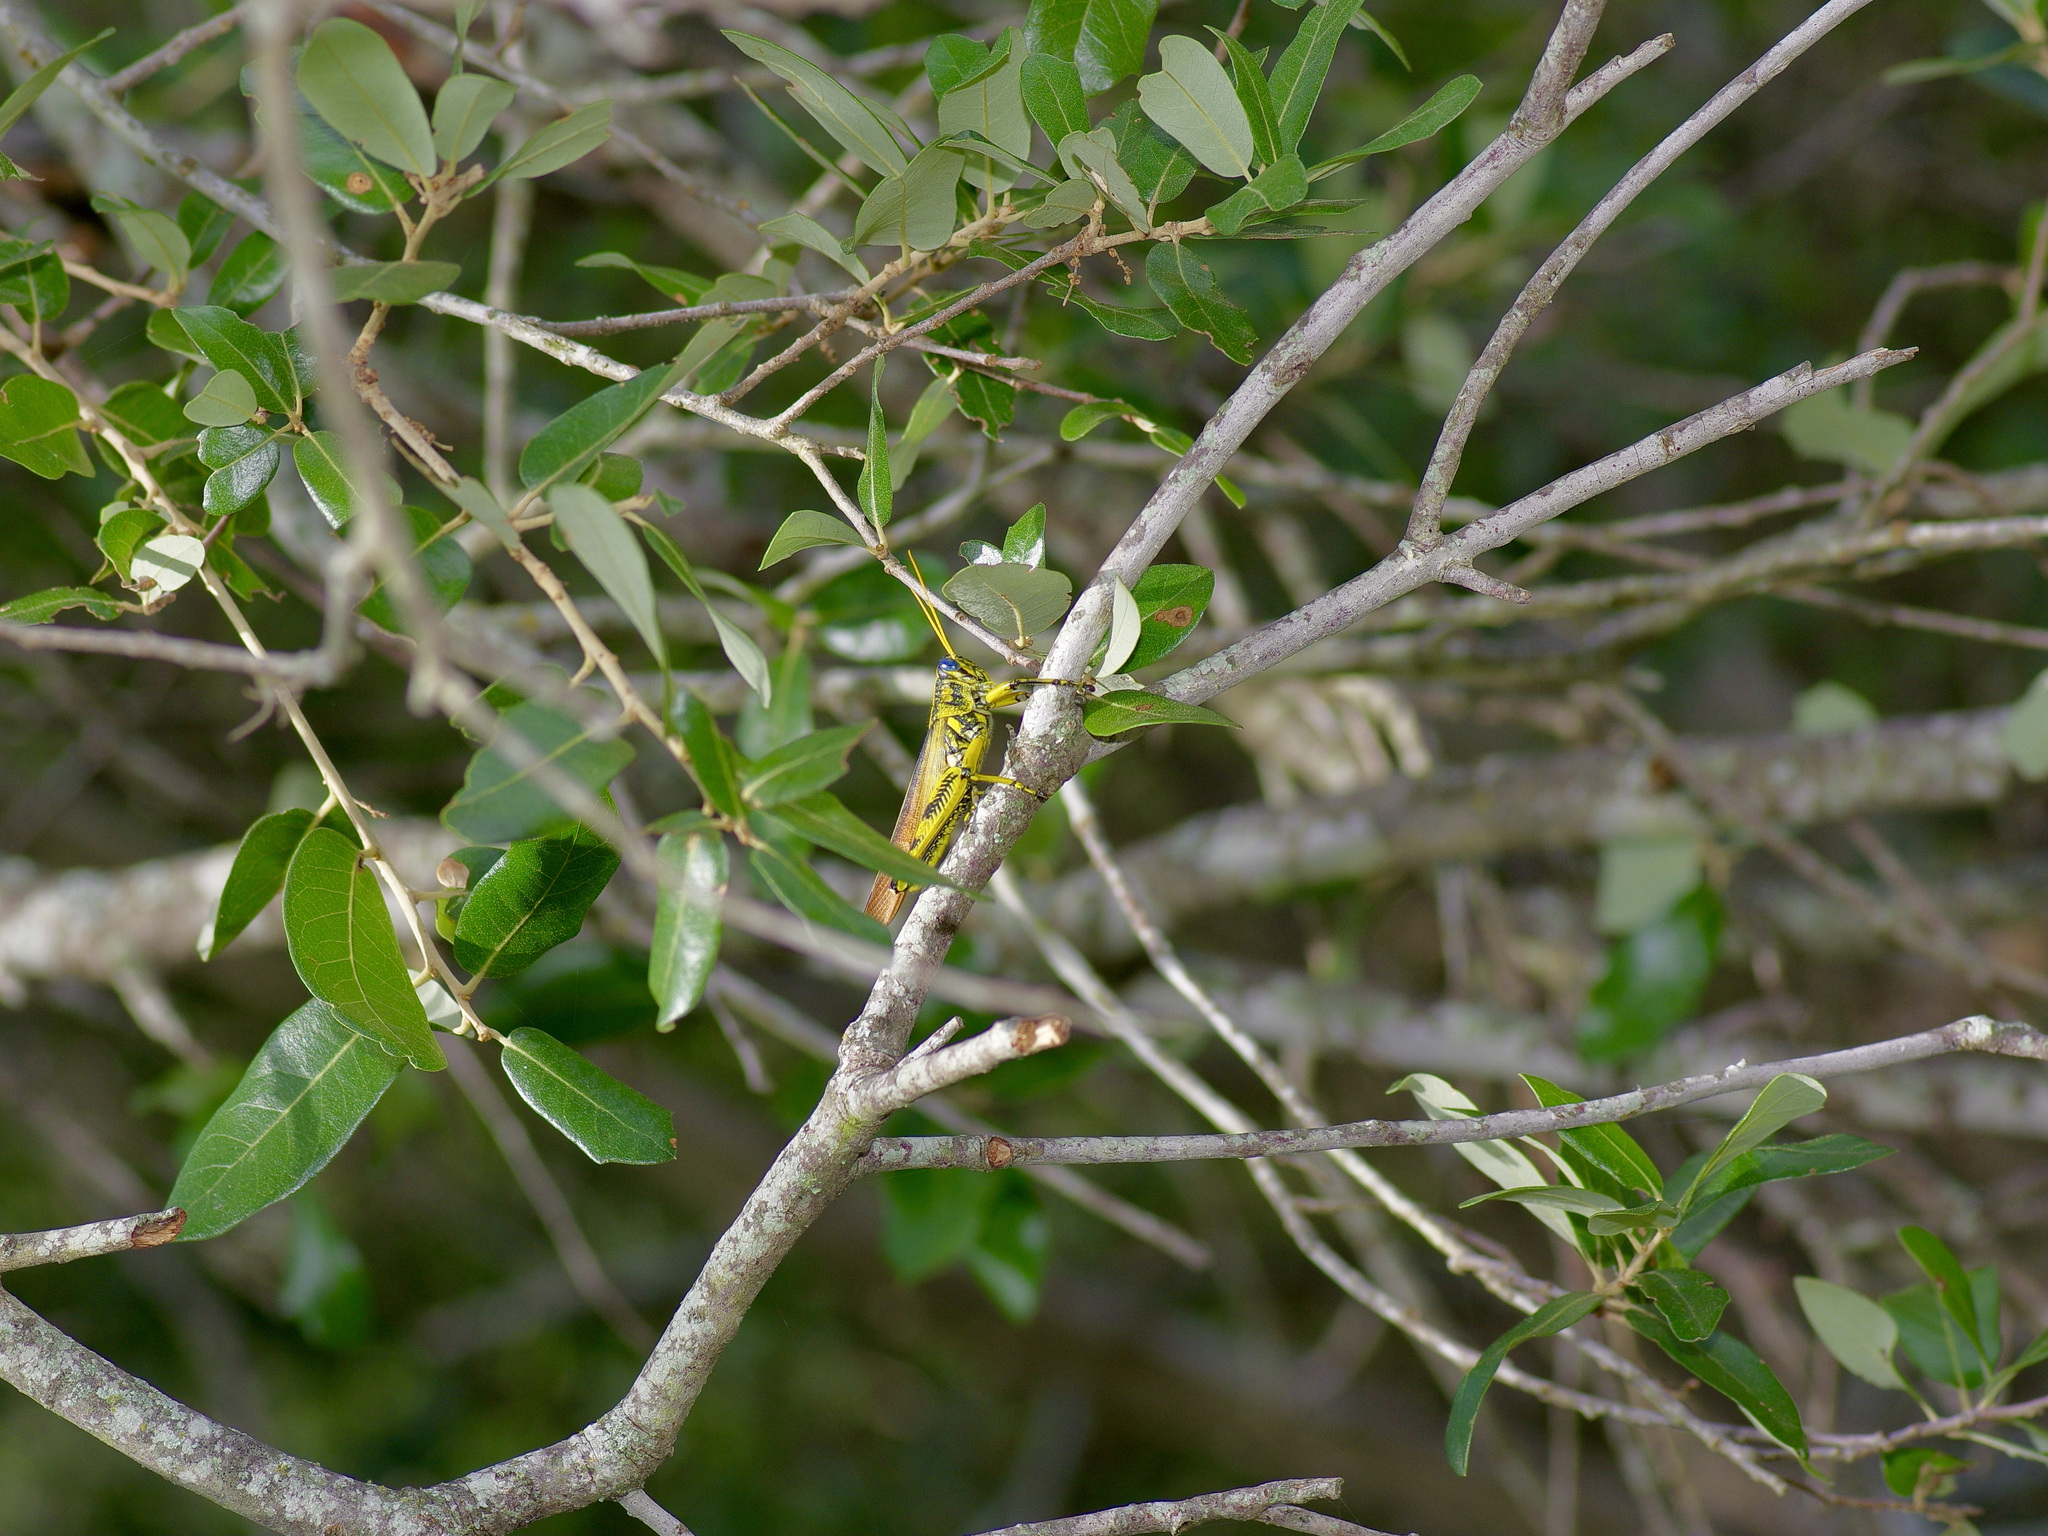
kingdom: Animalia
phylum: Arthropoda
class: Insecta
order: Orthoptera
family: Acrididae
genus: Schistocerca
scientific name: Schistocerca lineata
